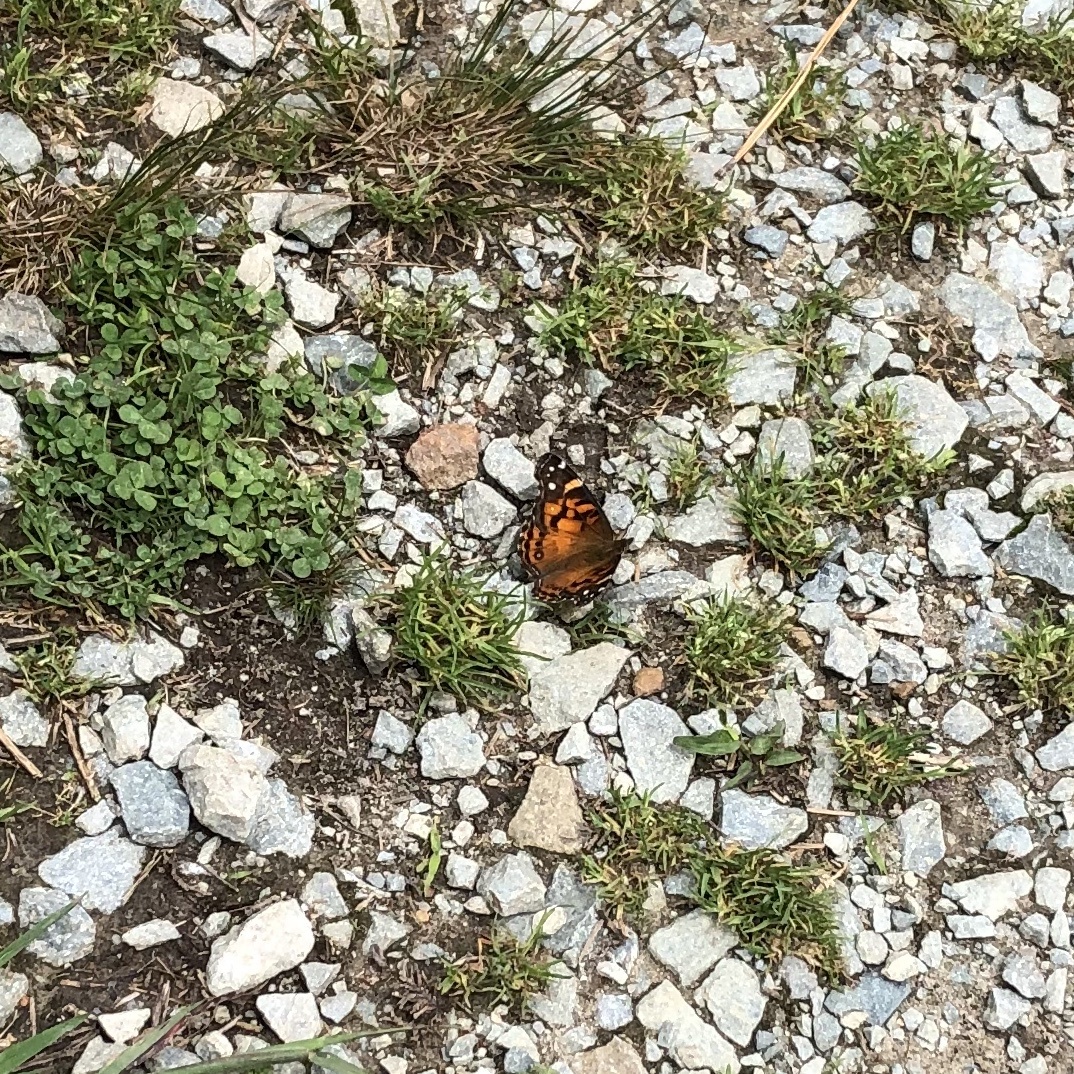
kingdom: Animalia
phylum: Arthropoda
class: Insecta
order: Lepidoptera
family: Nymphalidae
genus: Vanessa
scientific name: Vanessa virginiensis
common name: American lady
